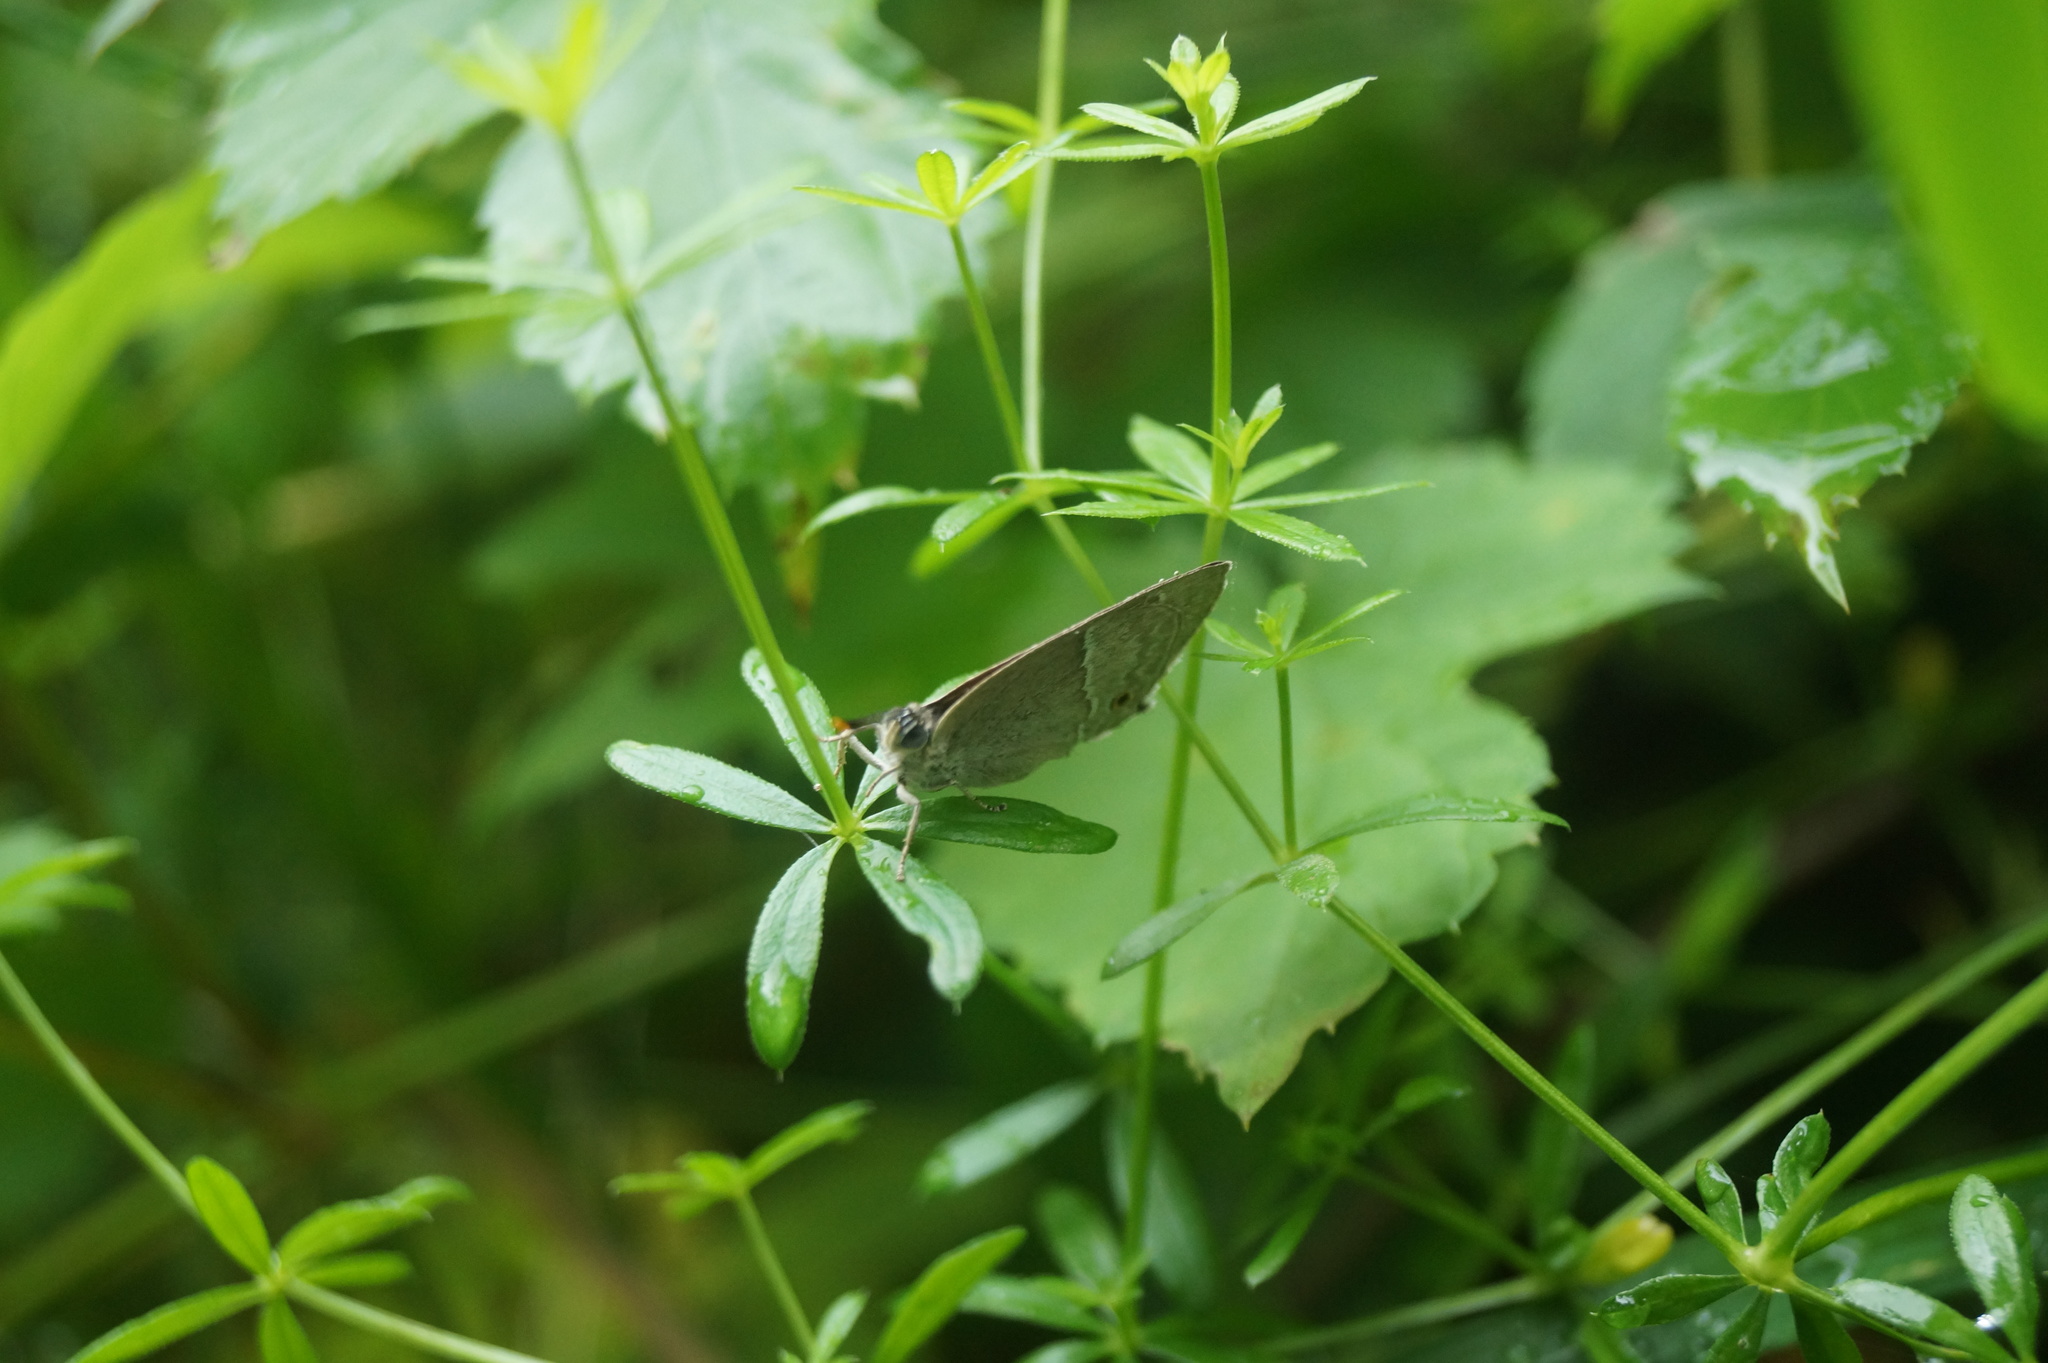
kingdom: Animalia
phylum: Arthropoda
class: Insecta
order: Lepidoptera
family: Lycaenidae
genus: Quercusia
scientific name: Quercusia quercus
